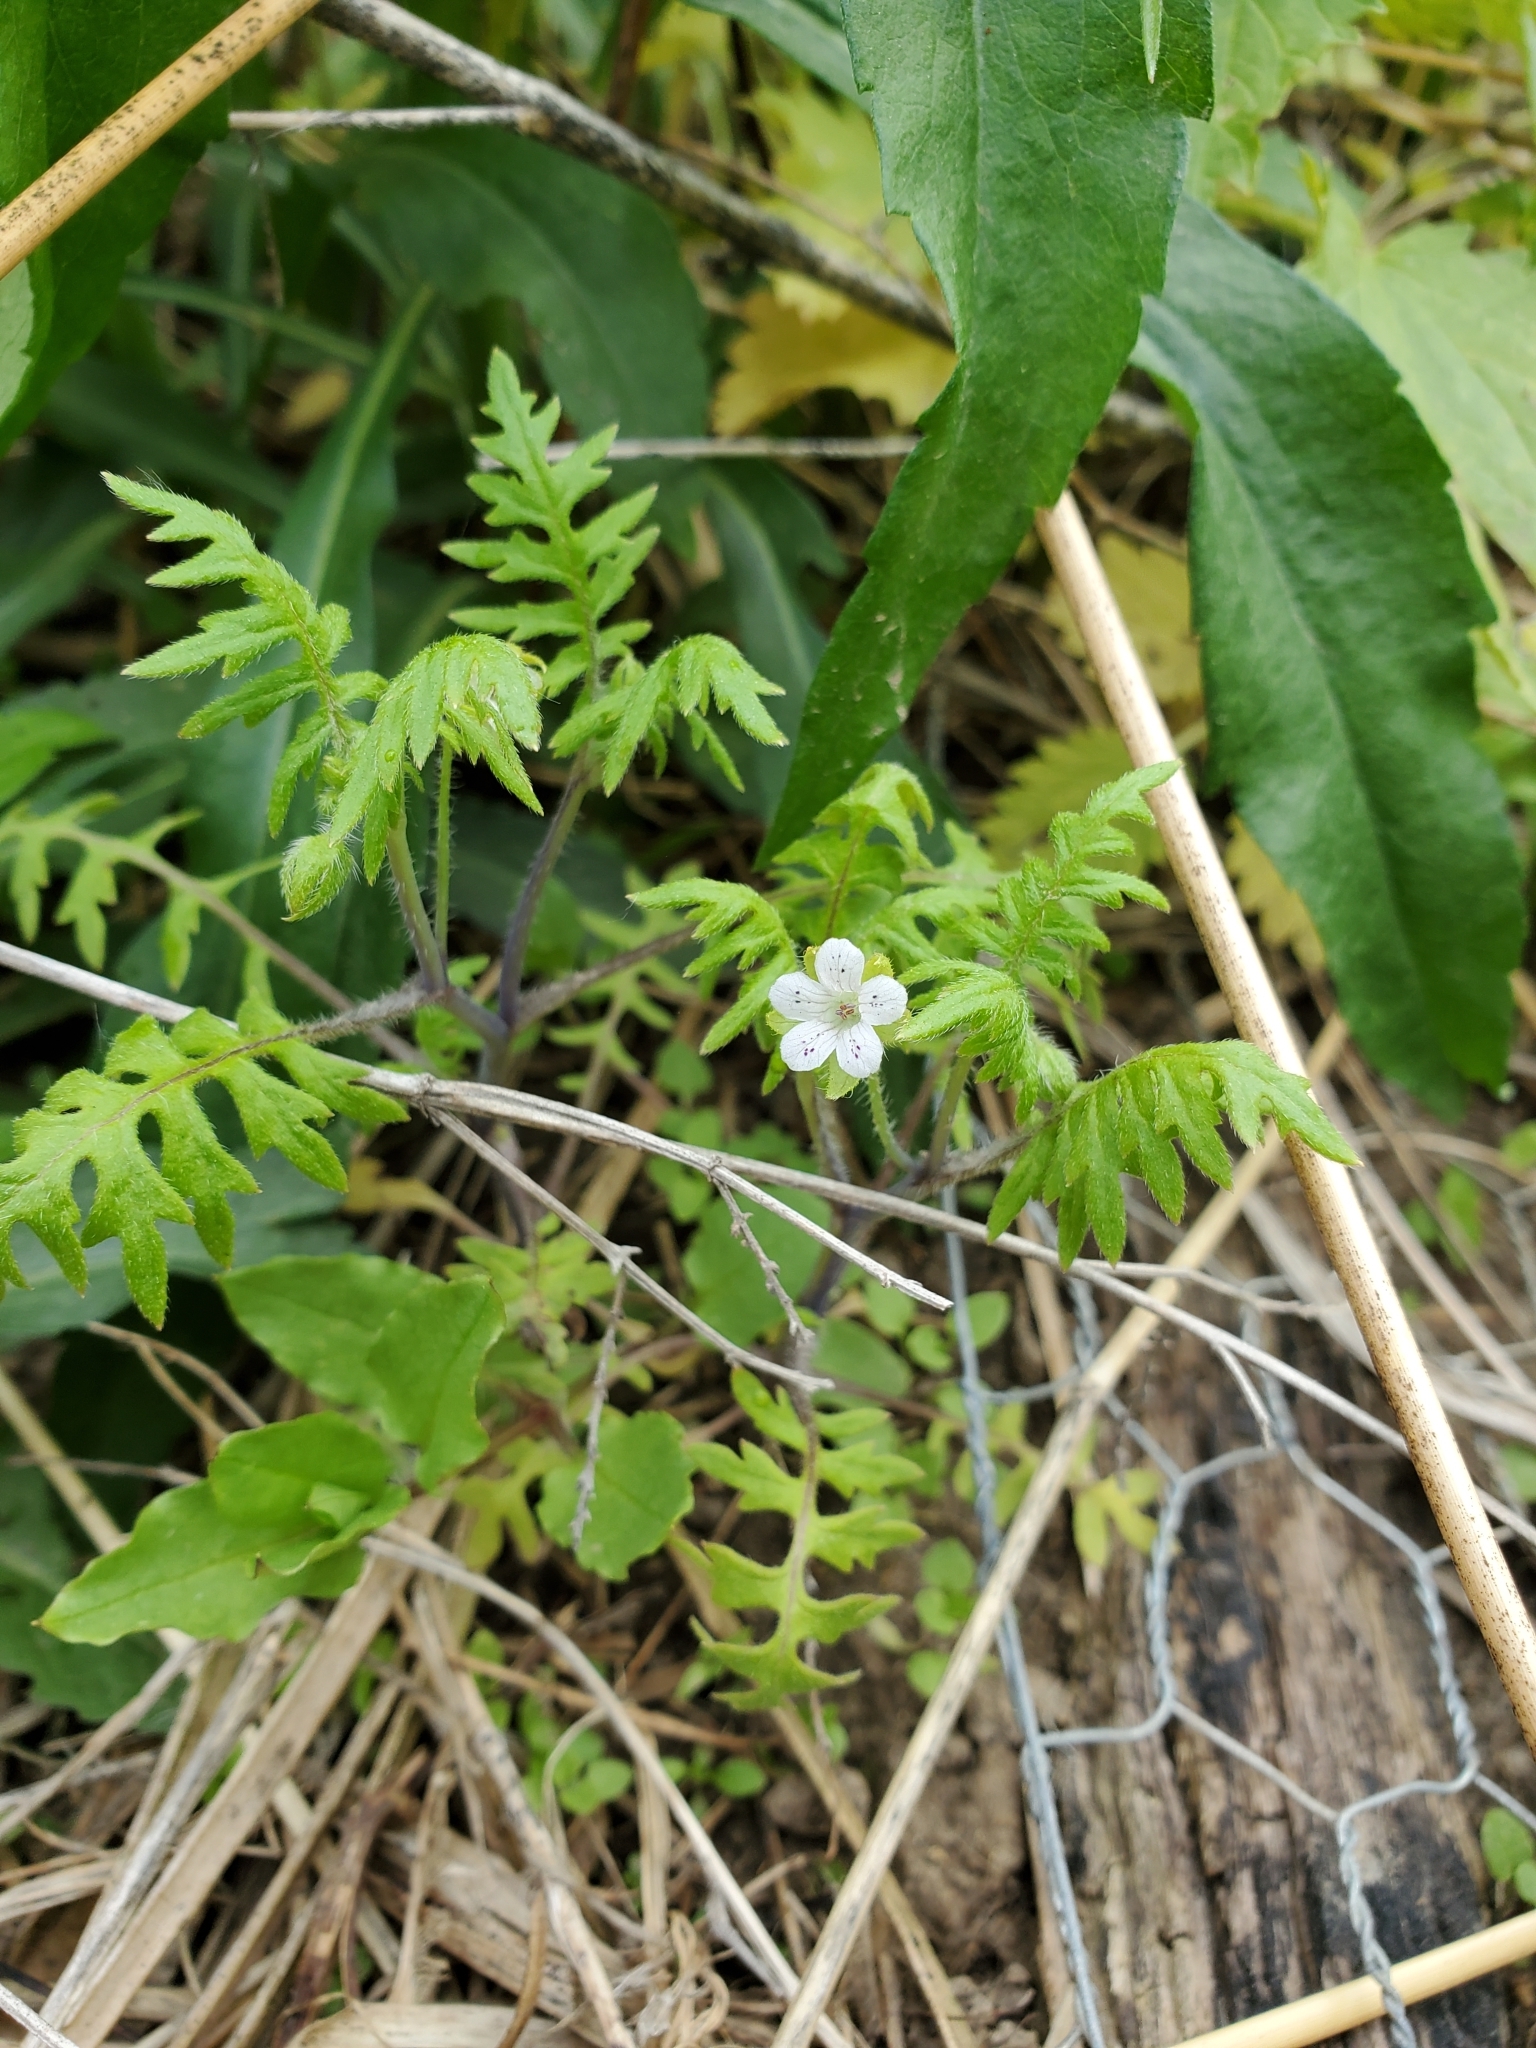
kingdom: Plantae
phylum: Tracheophyta
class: Magnoliopsida
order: Boraginales
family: Hydrophyllaceae
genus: Ellisia
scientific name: Ellisia nyctelea
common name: Aunt lucy
